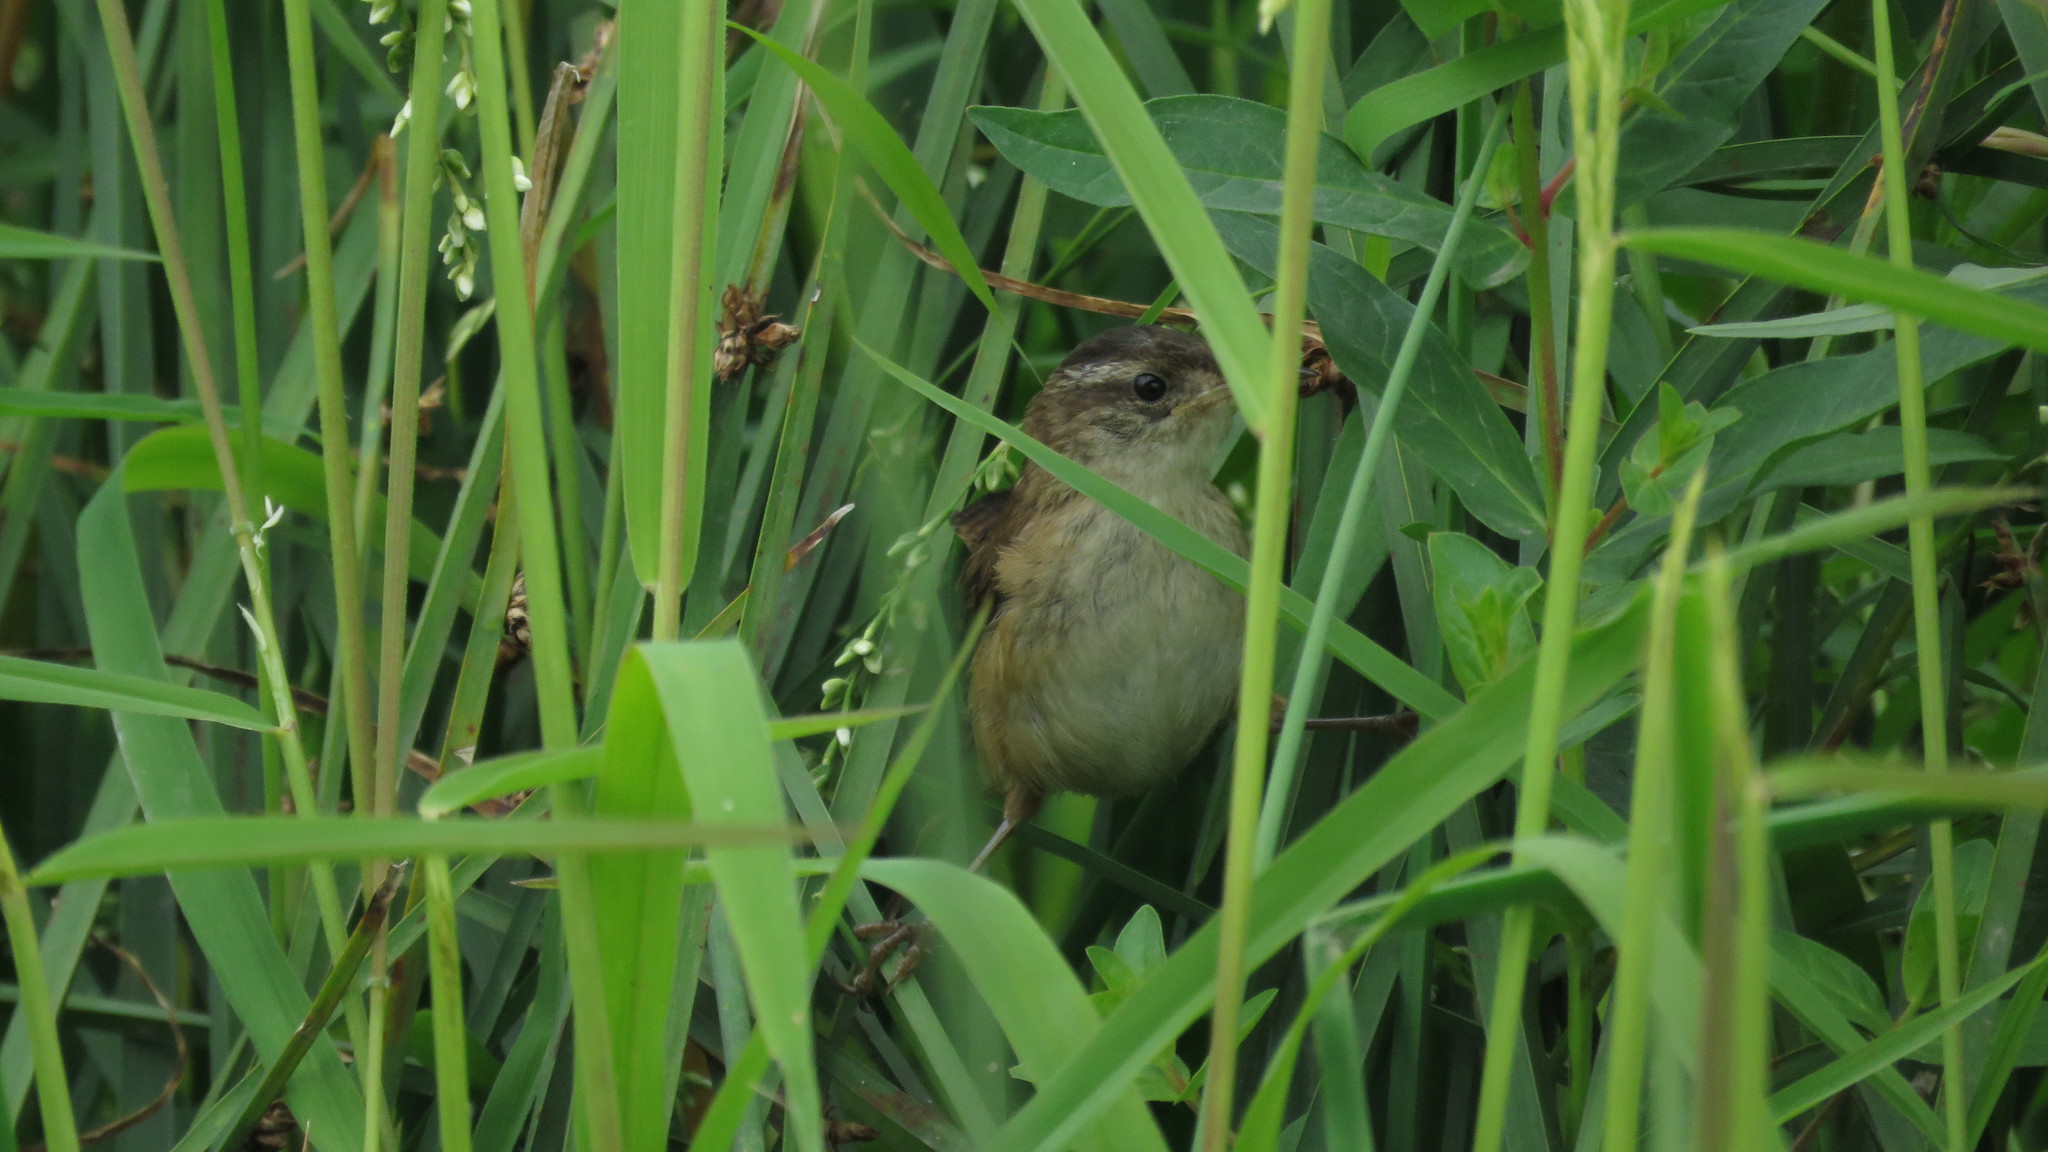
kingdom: Animalia
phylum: Chordata
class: Aves
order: Passeriformes
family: Troglodytidae
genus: Cistothorus
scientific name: Cistothorus palustris
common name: Marsh wren
